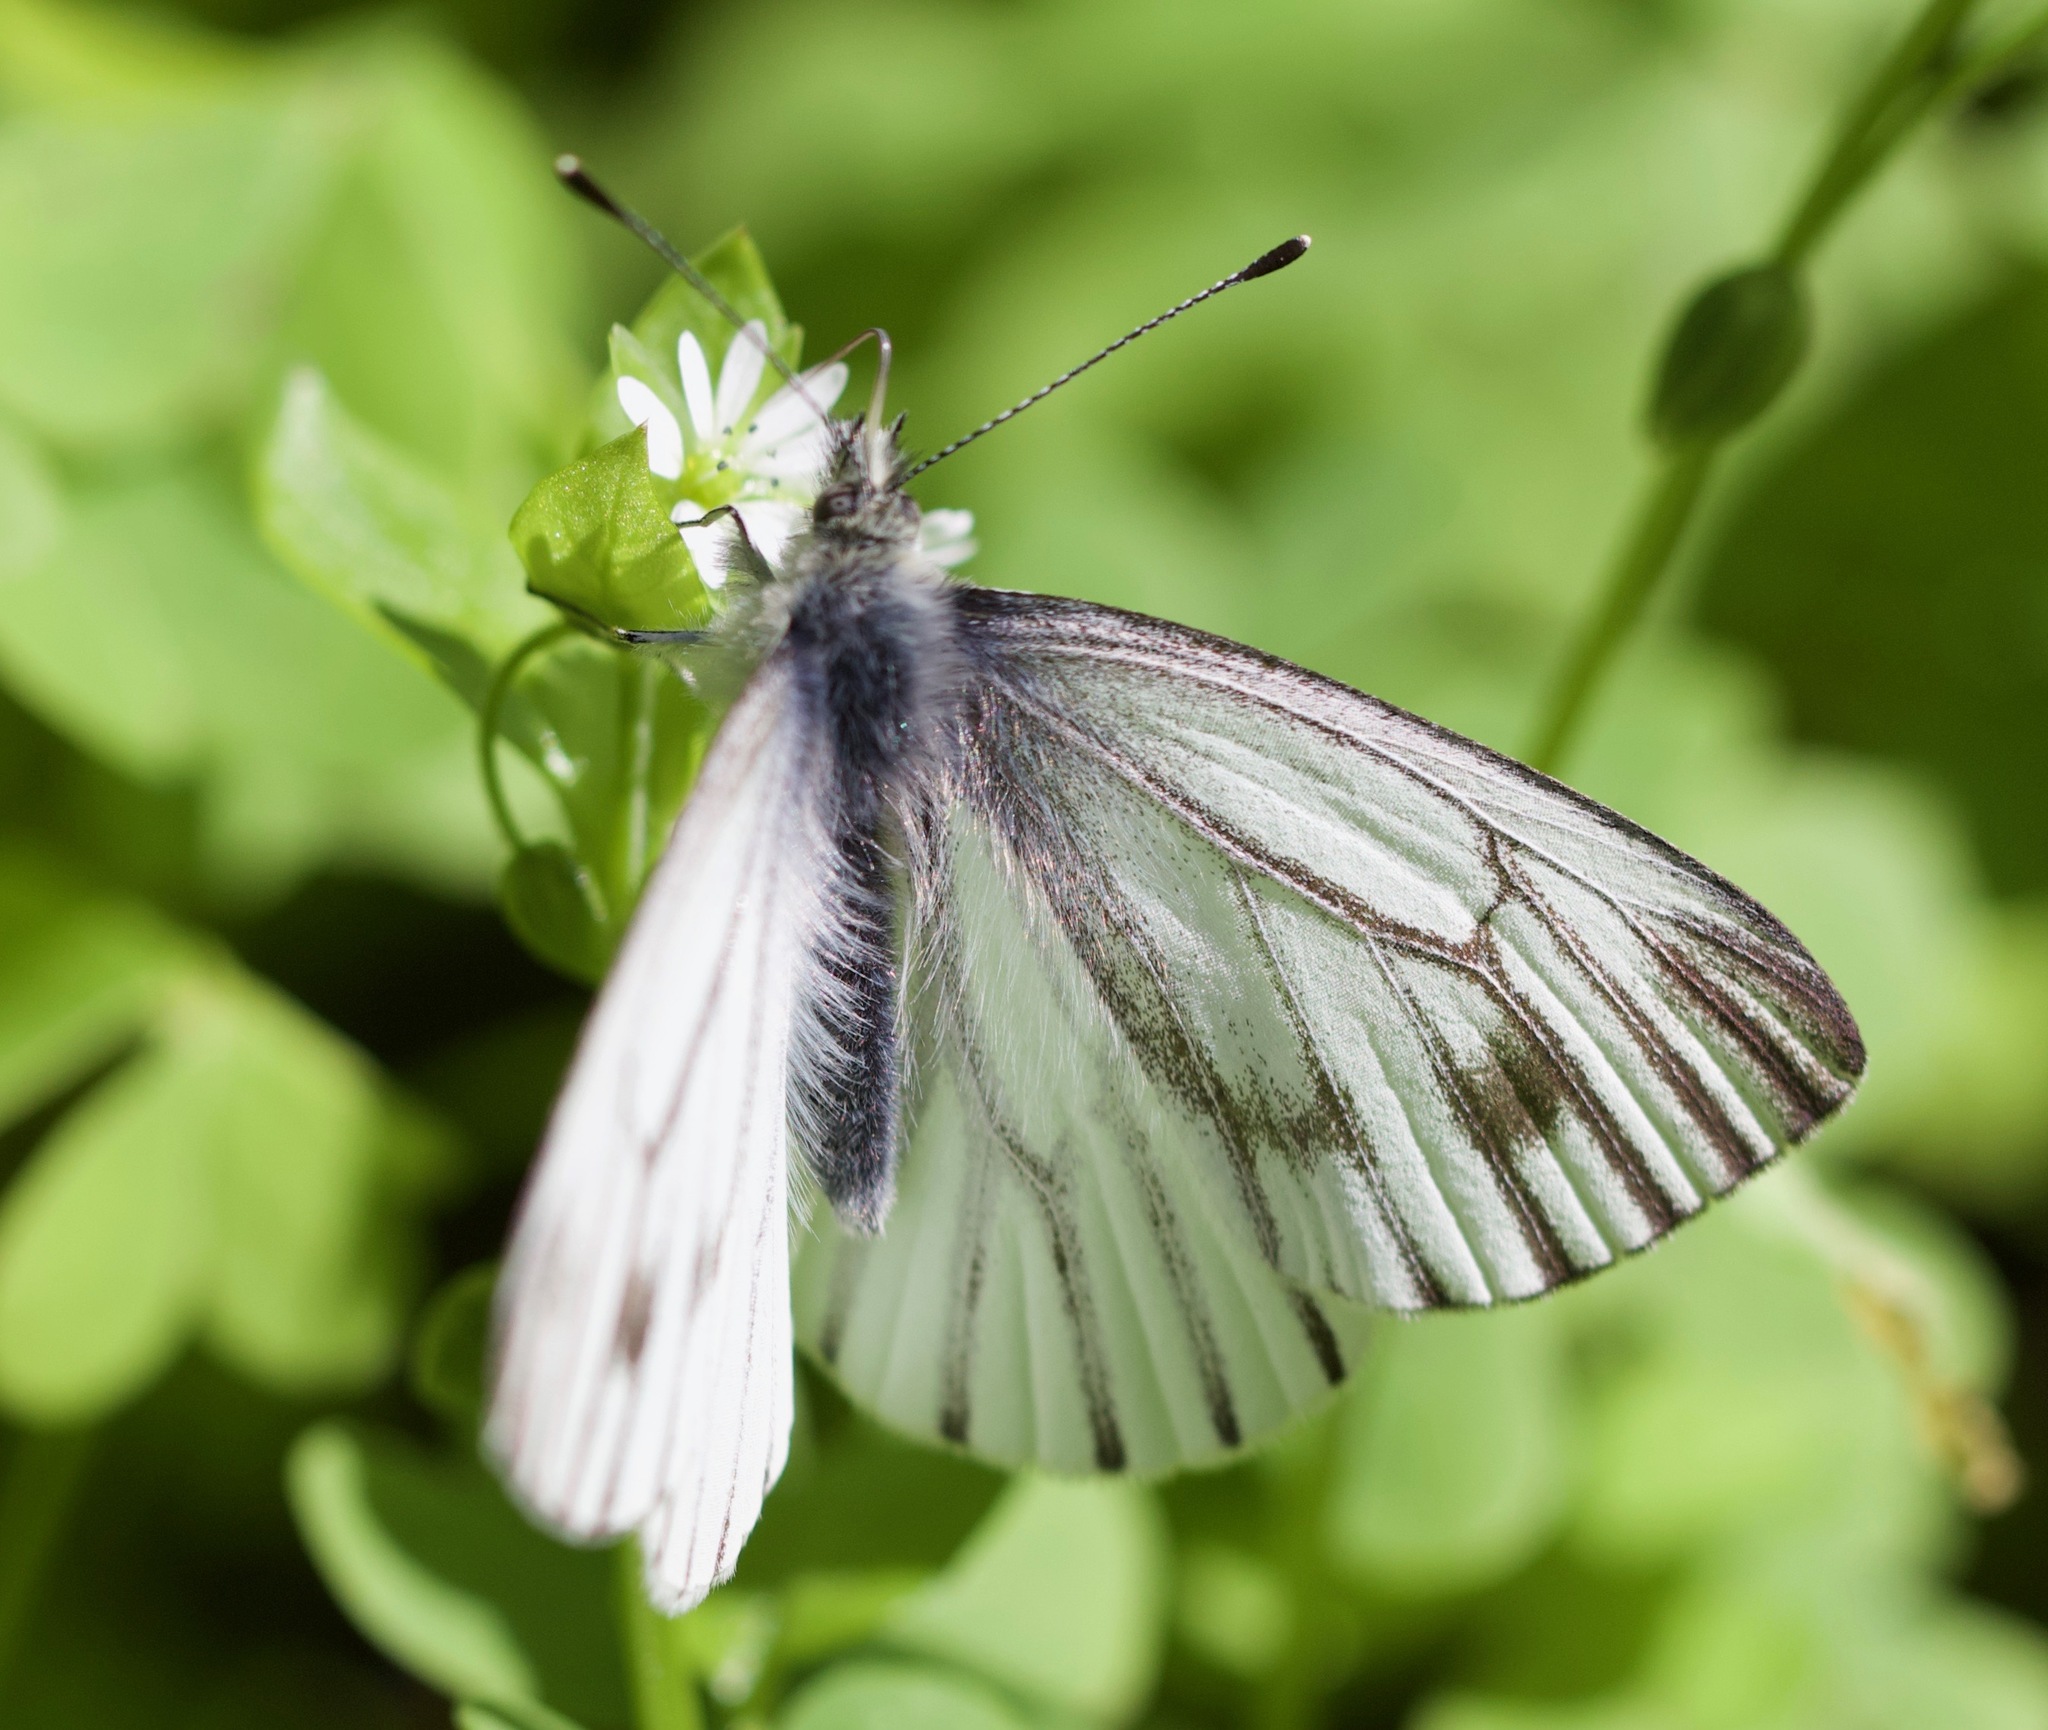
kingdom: Animalia
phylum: Arthropoda
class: Insecta
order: Lepidoptera
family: Pieridae
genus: Pieris
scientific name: Pieris marginalis
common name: Margined white
